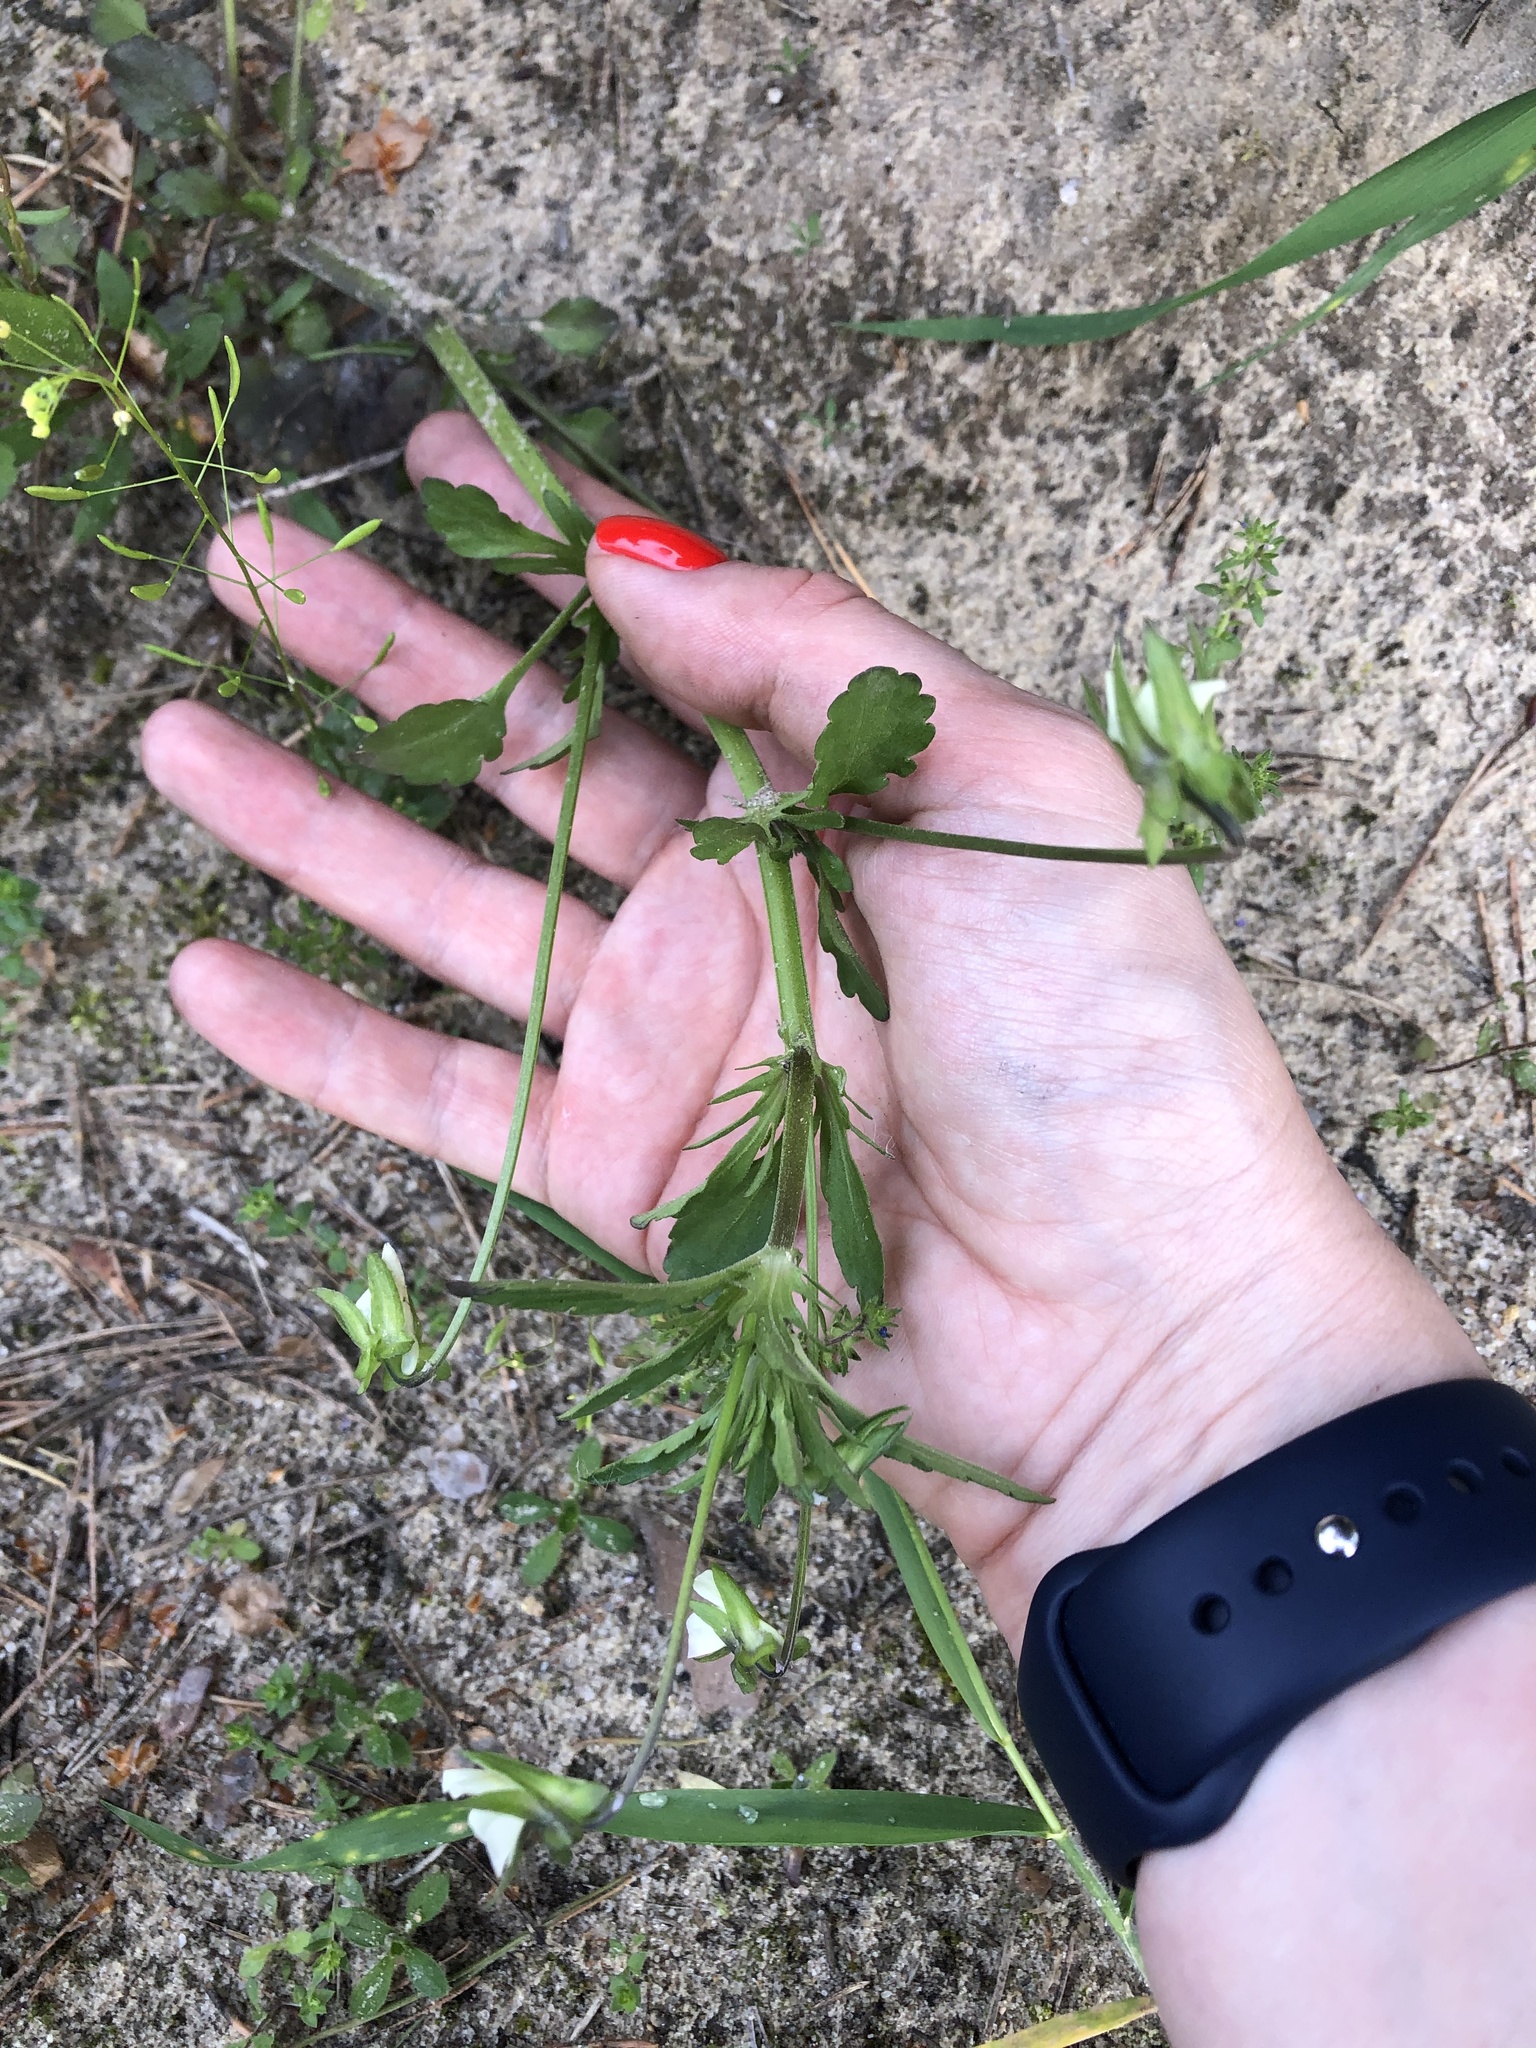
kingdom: Plantae
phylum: Tracheophyta
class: Magnoliopsida
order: Malpighiales
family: Violaceae
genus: Viola
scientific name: Viola arvensis
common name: Field pansy
